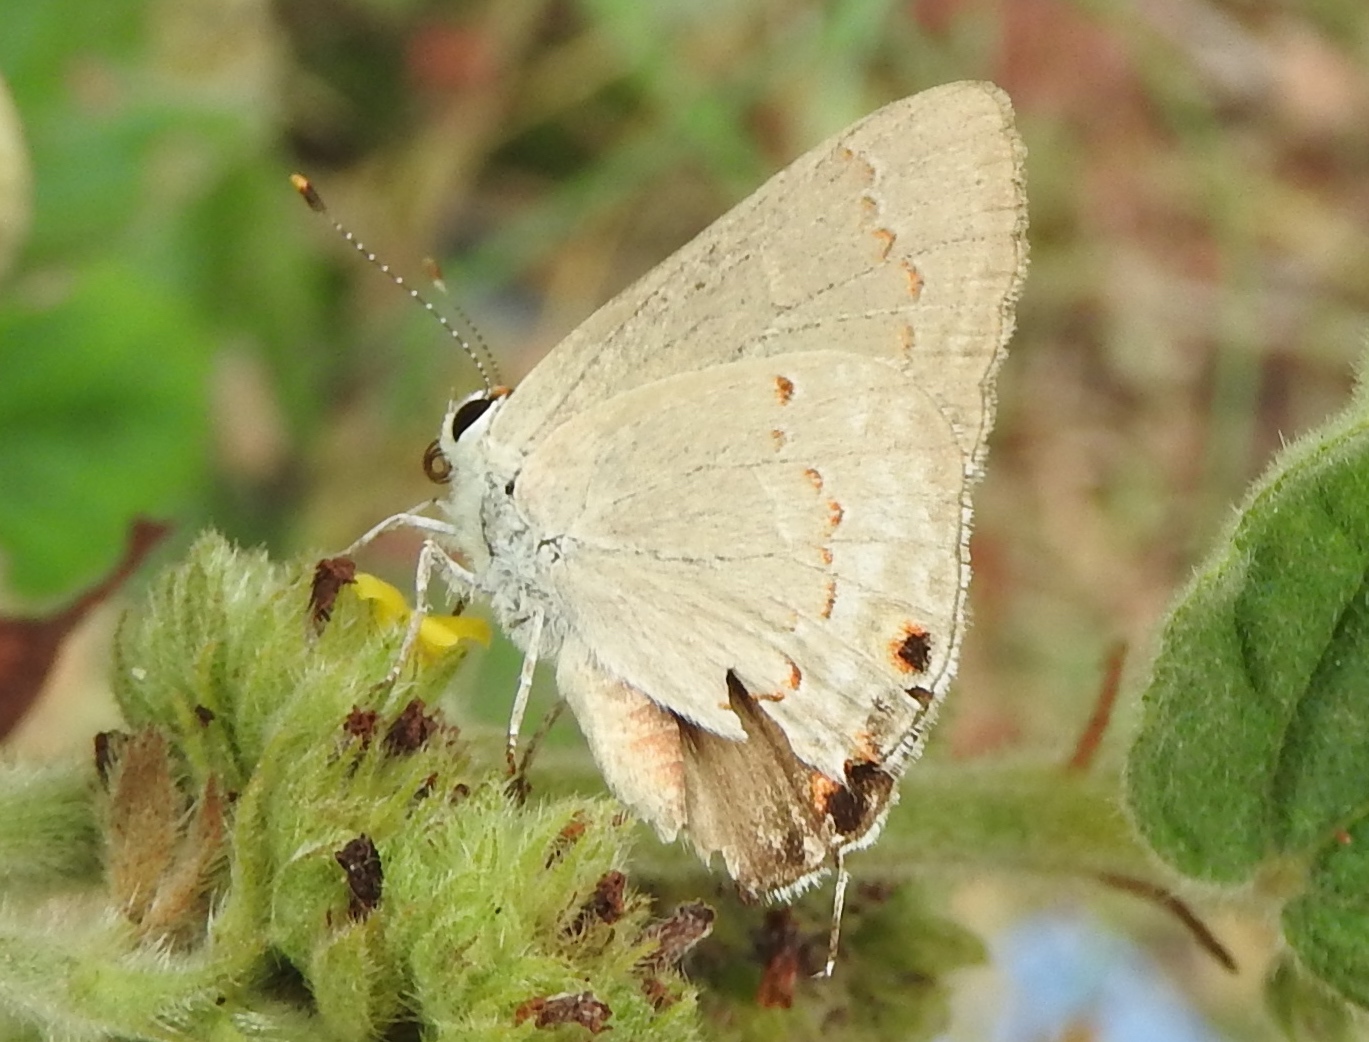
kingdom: Animalia
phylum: Arthropoda
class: Insecta
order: Lepidoptera
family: Lycaenidae
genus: Thecla
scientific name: Thecla rufofusca
